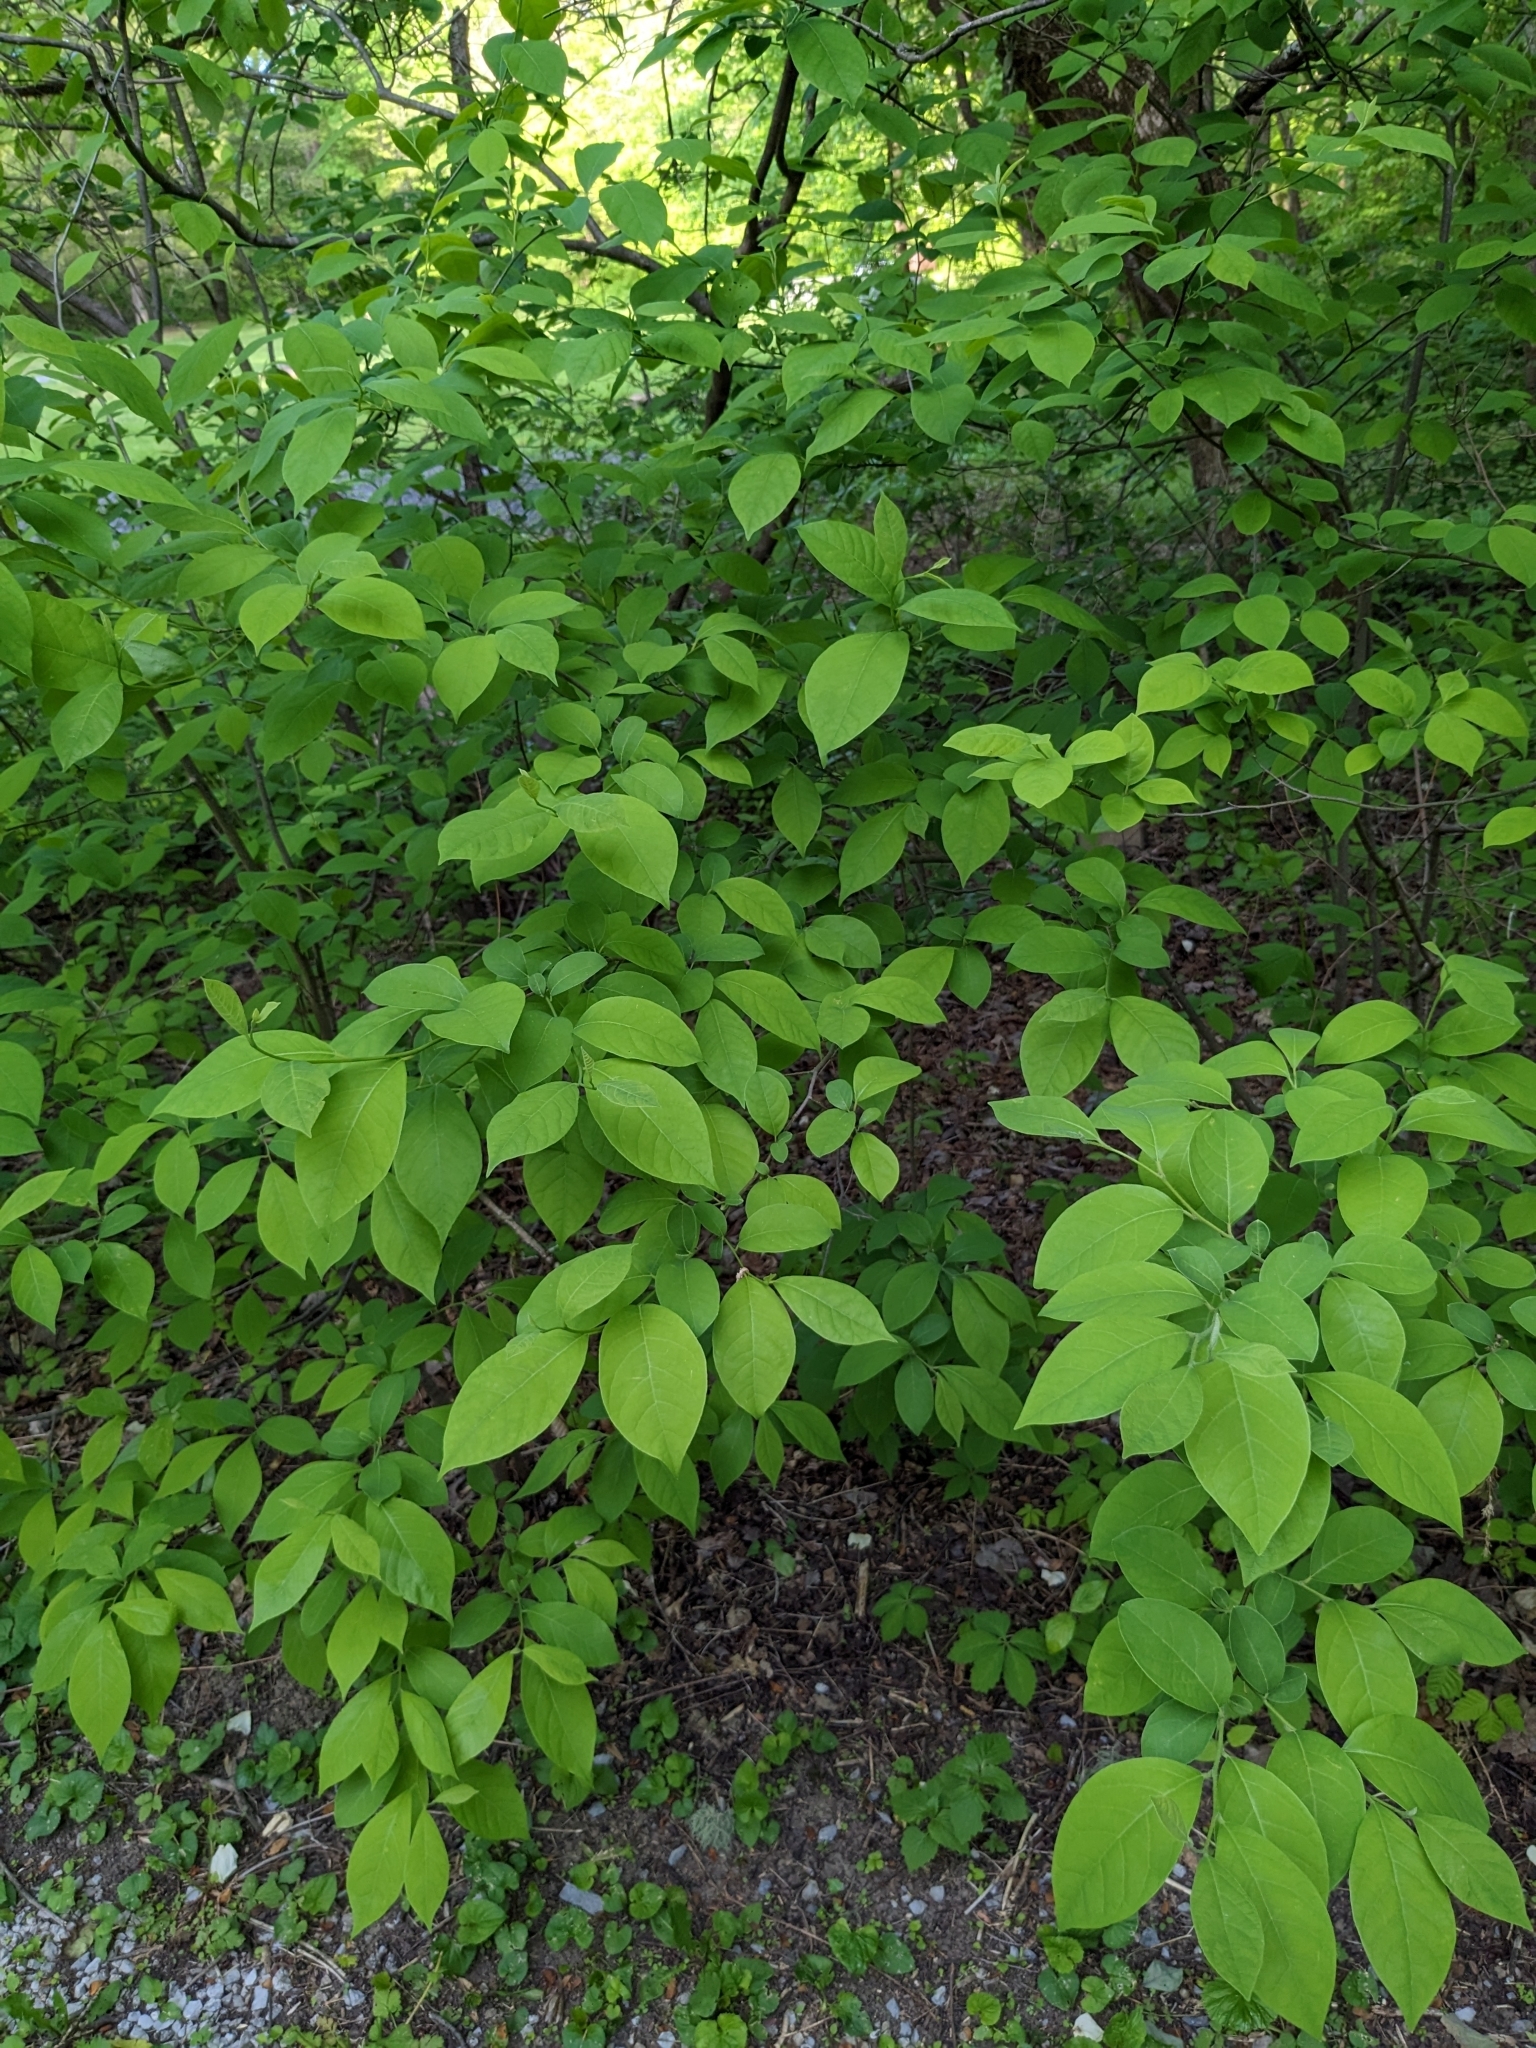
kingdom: Plantae
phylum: Tracheophyta
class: Magnoliopsida
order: Laurales
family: Lauraceae
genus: Lindera
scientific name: Lindera benzoin
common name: Spicebush
